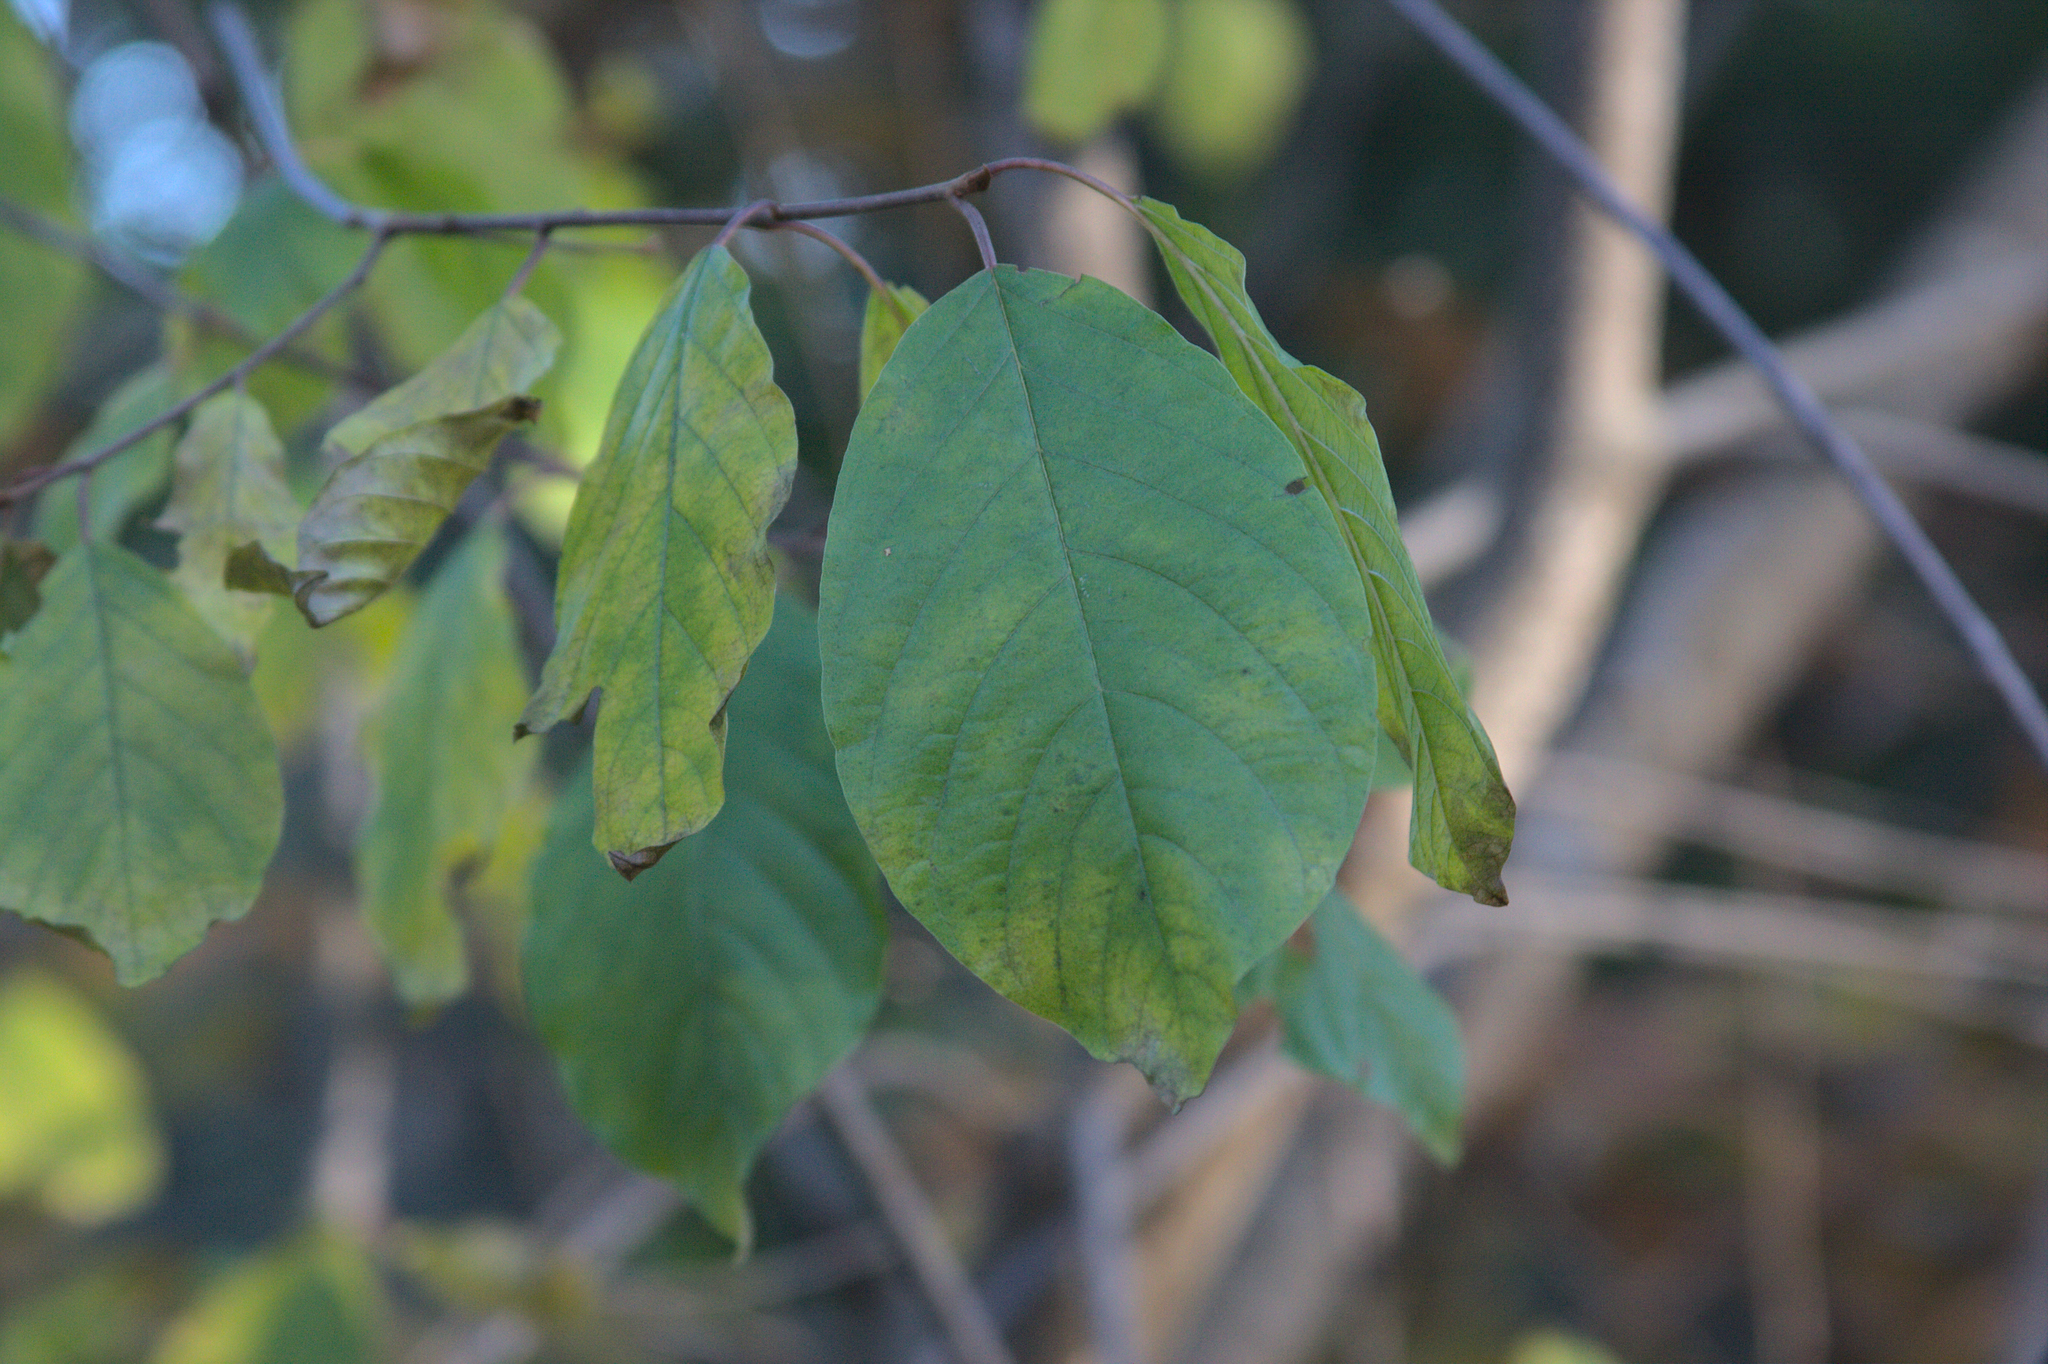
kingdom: Plantae
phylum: Tracheophyta
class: Magnoliopsida
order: Rosales
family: Rhamnaceae
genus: Frangula
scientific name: Frangula alnus
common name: Alder buckthorn
